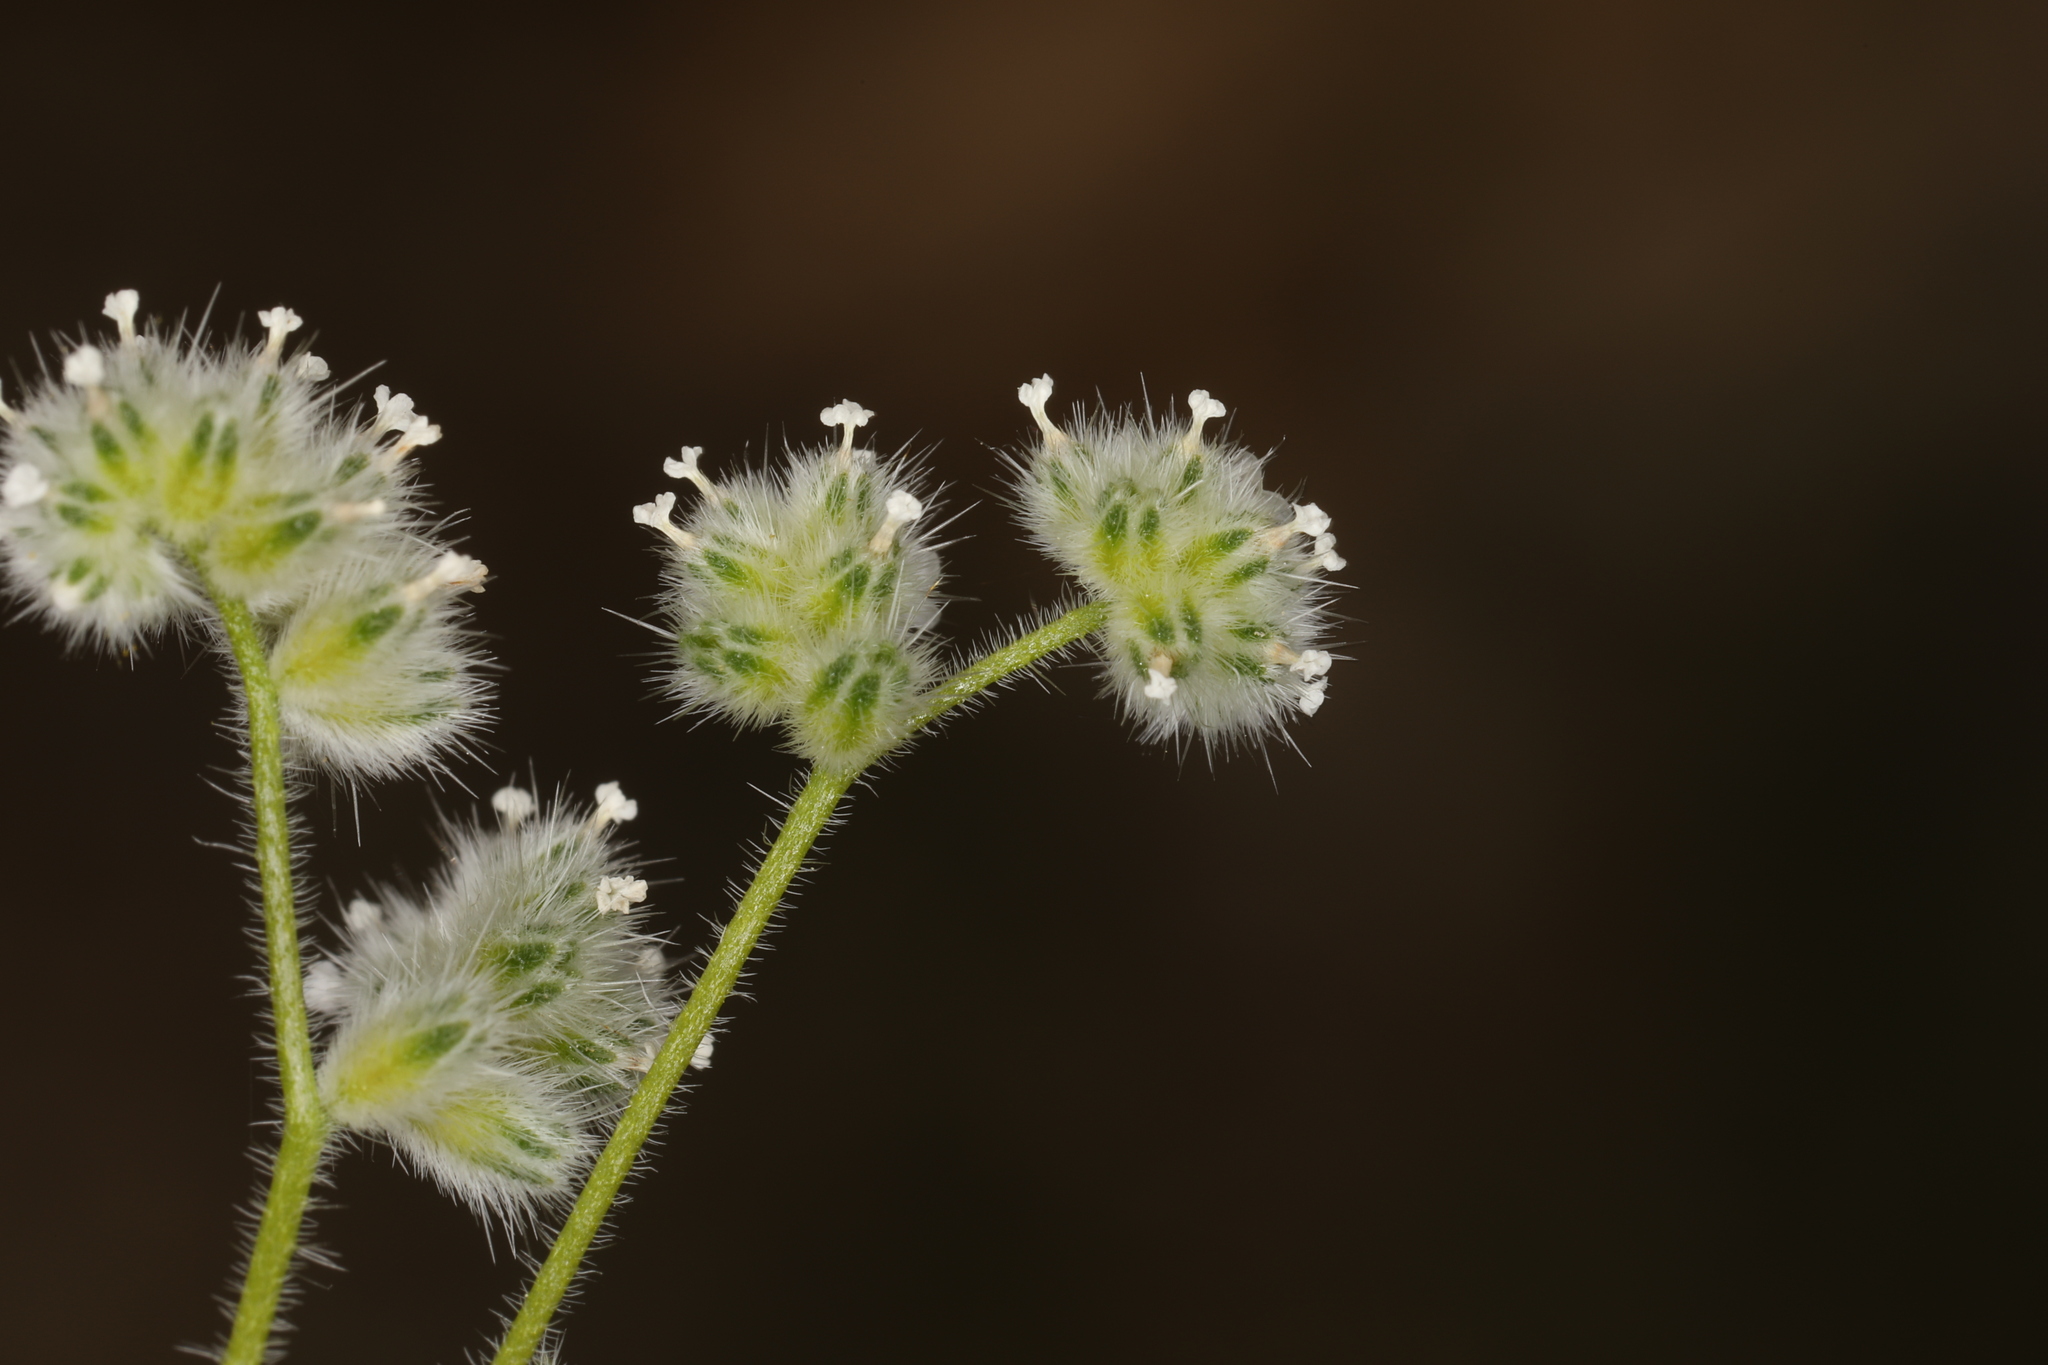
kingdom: Plantae
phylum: Tracheophyta
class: Magnoliopsida
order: Boraginales
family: Boraginaceae
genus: Cryptantha
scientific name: Cryptantha gracilis
